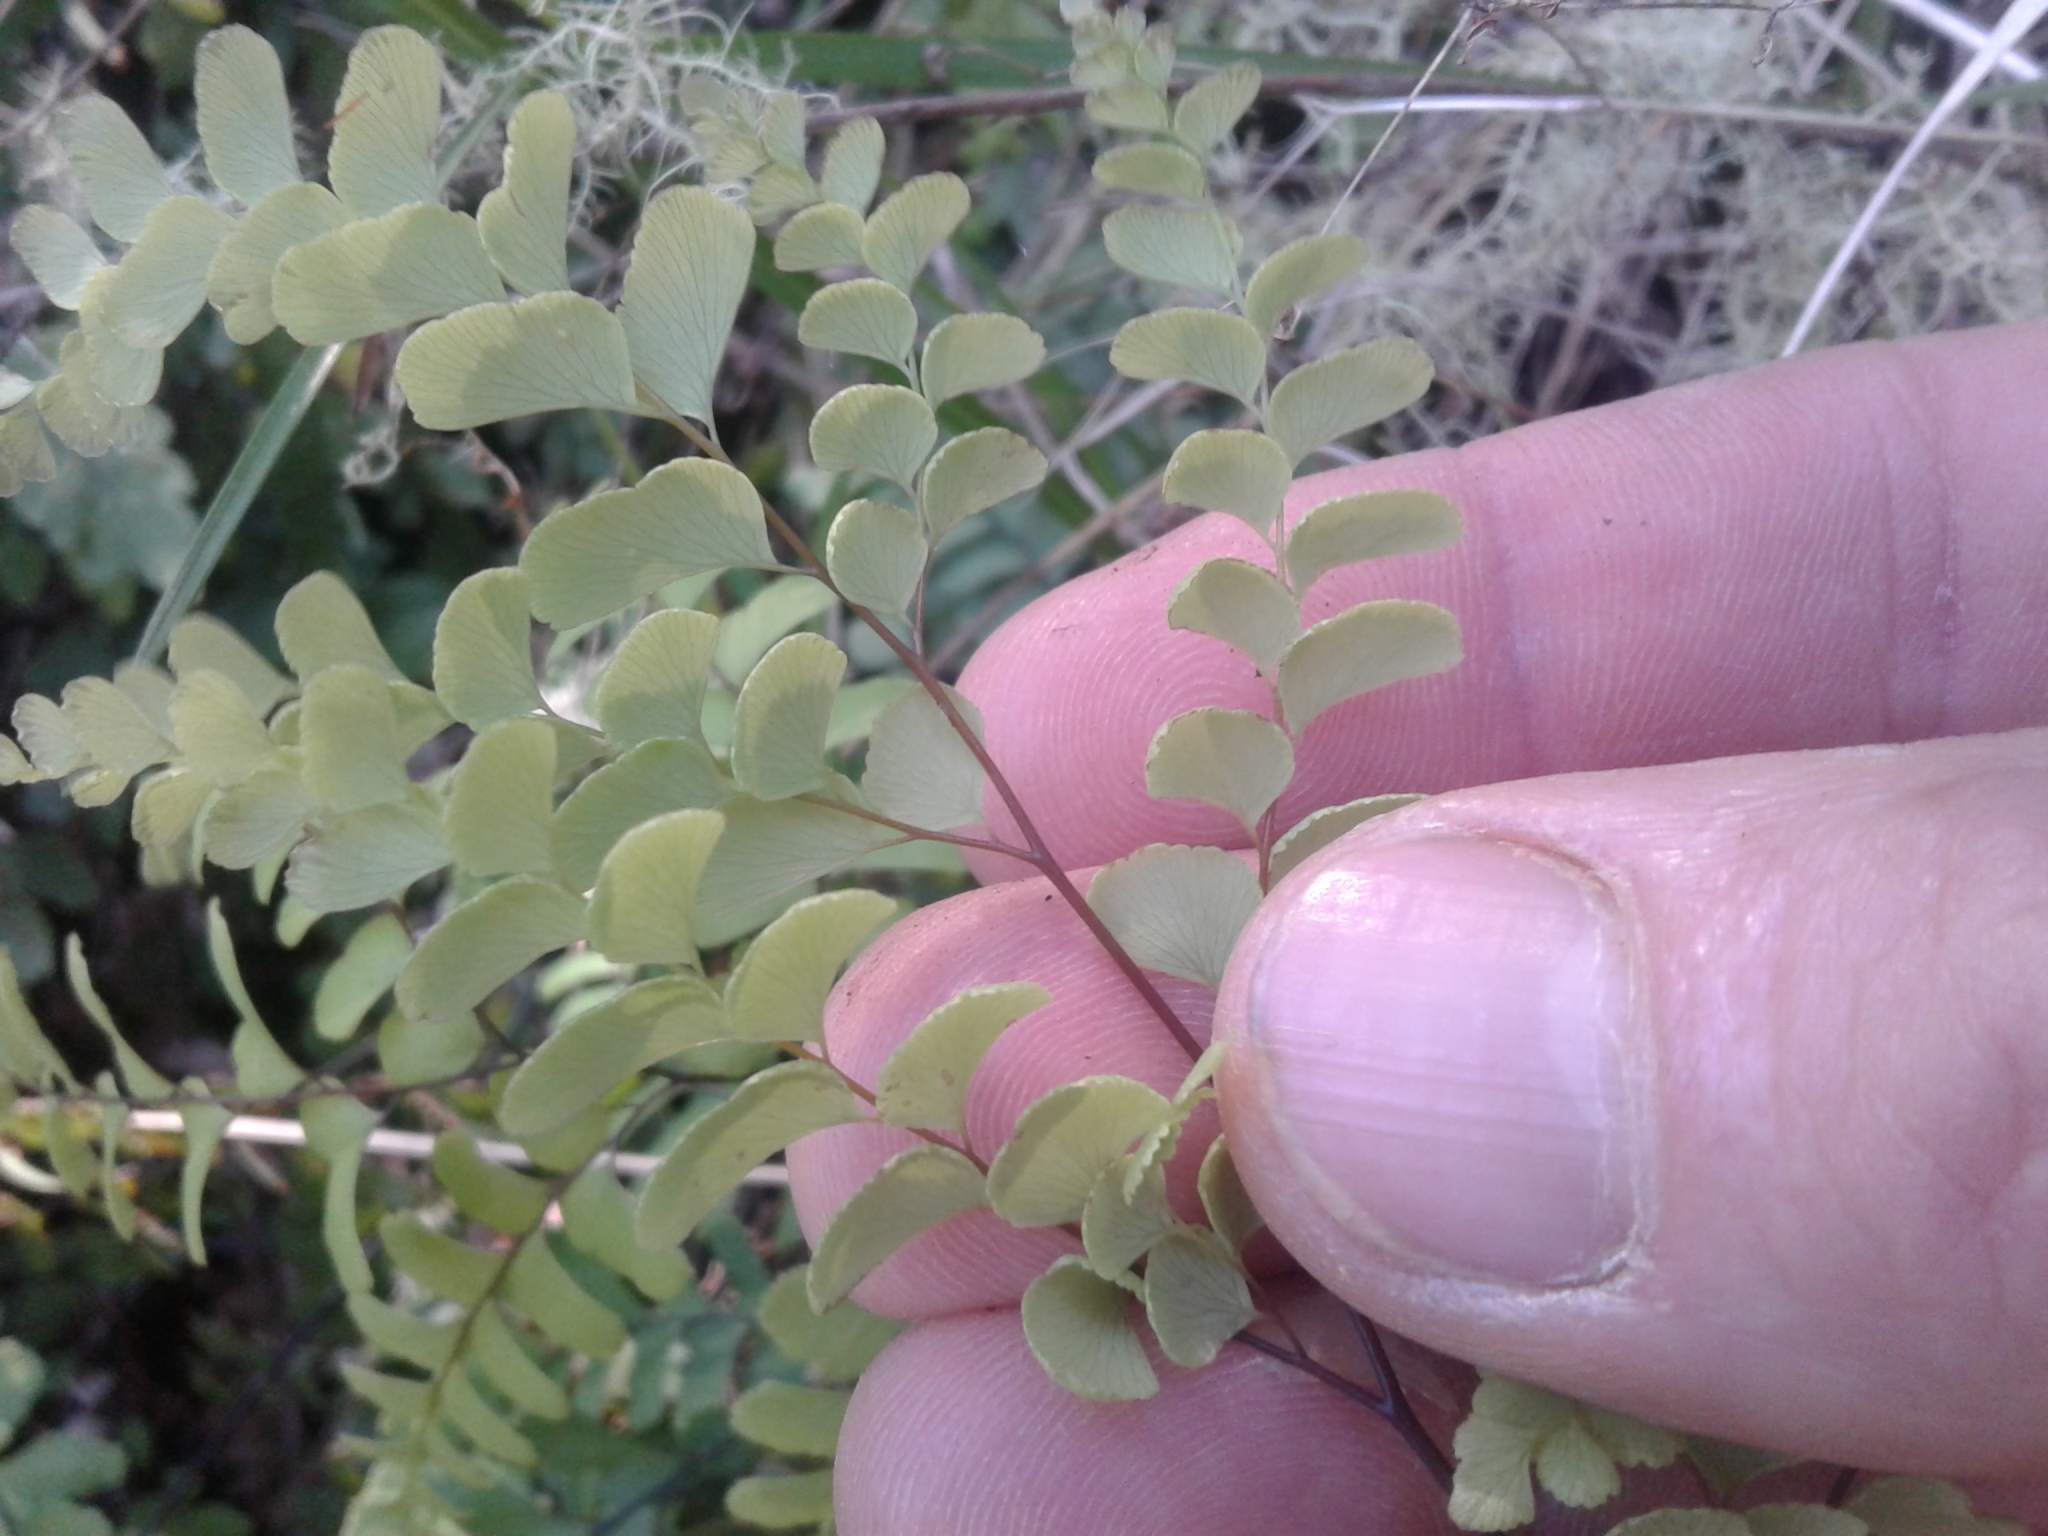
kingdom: Plantae
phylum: Tracheophyta
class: Polypodiopsida
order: Polypodiales
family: Pteridaceae
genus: Adiantum
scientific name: Adiantum cunninghamii
